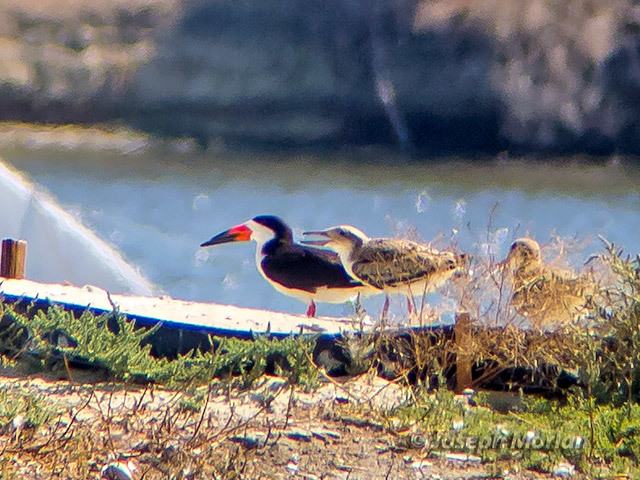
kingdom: Animalia
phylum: Chordata
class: Aves
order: Charadriiformes
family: Laridae
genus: Rynchops
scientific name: Rynchops niger
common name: Black skimmer
